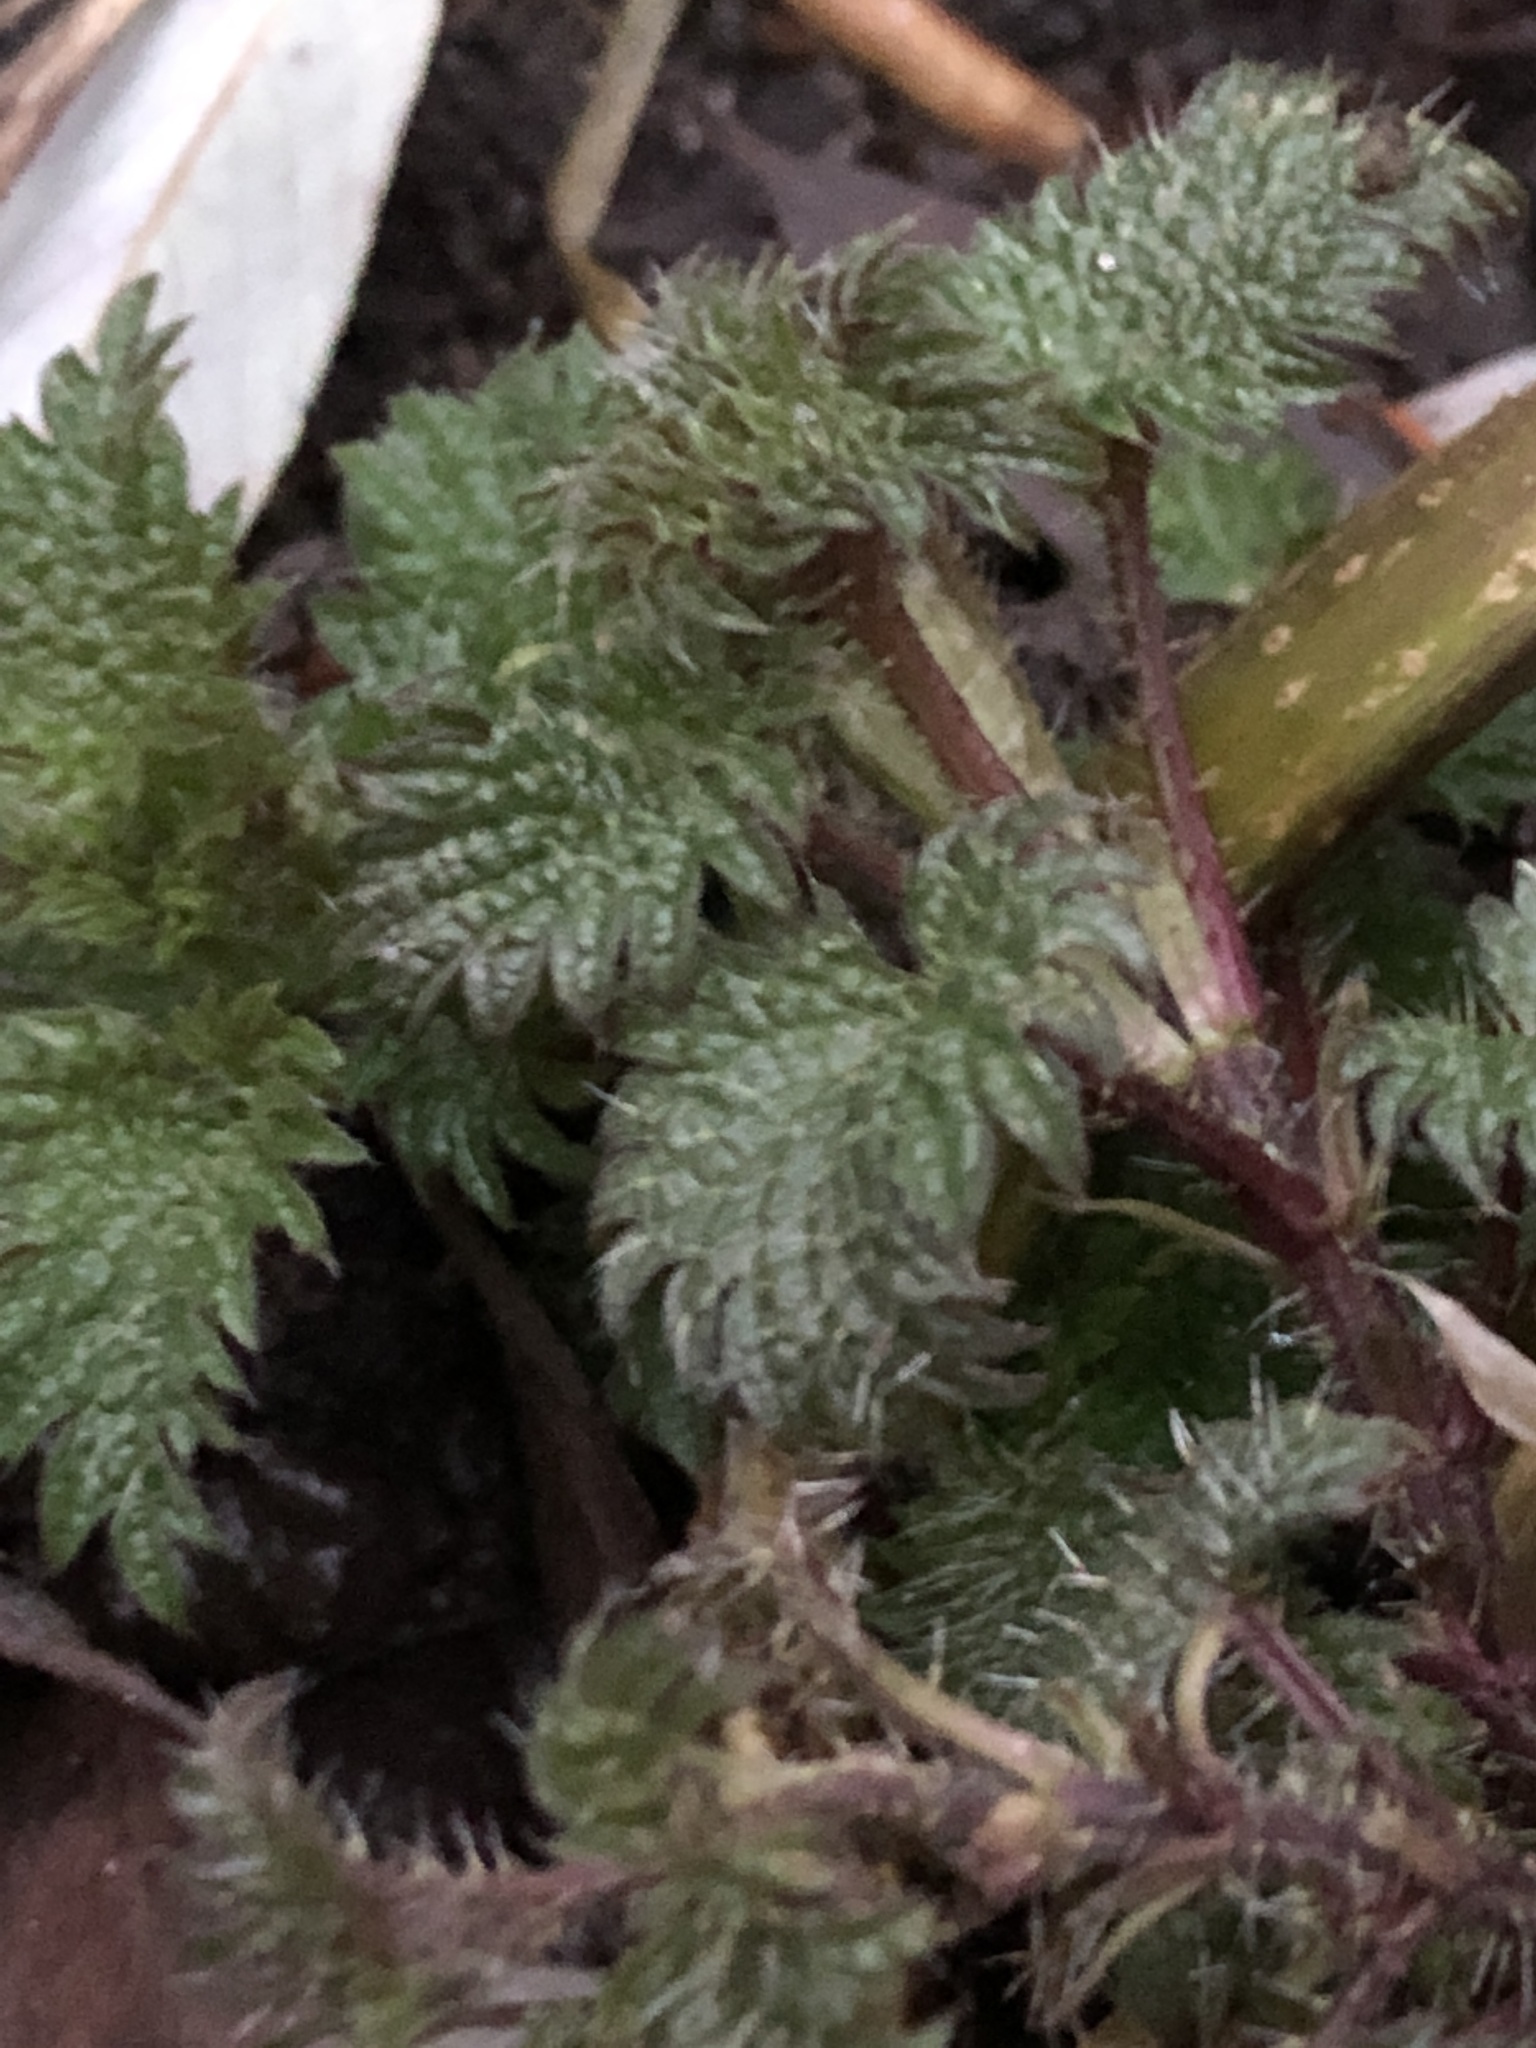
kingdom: Plantae
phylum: Tracheophyta
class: Magnoliopsida
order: Rosales
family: Urticaceae
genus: Urtica
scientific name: Urtica dioica
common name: Common nettle
